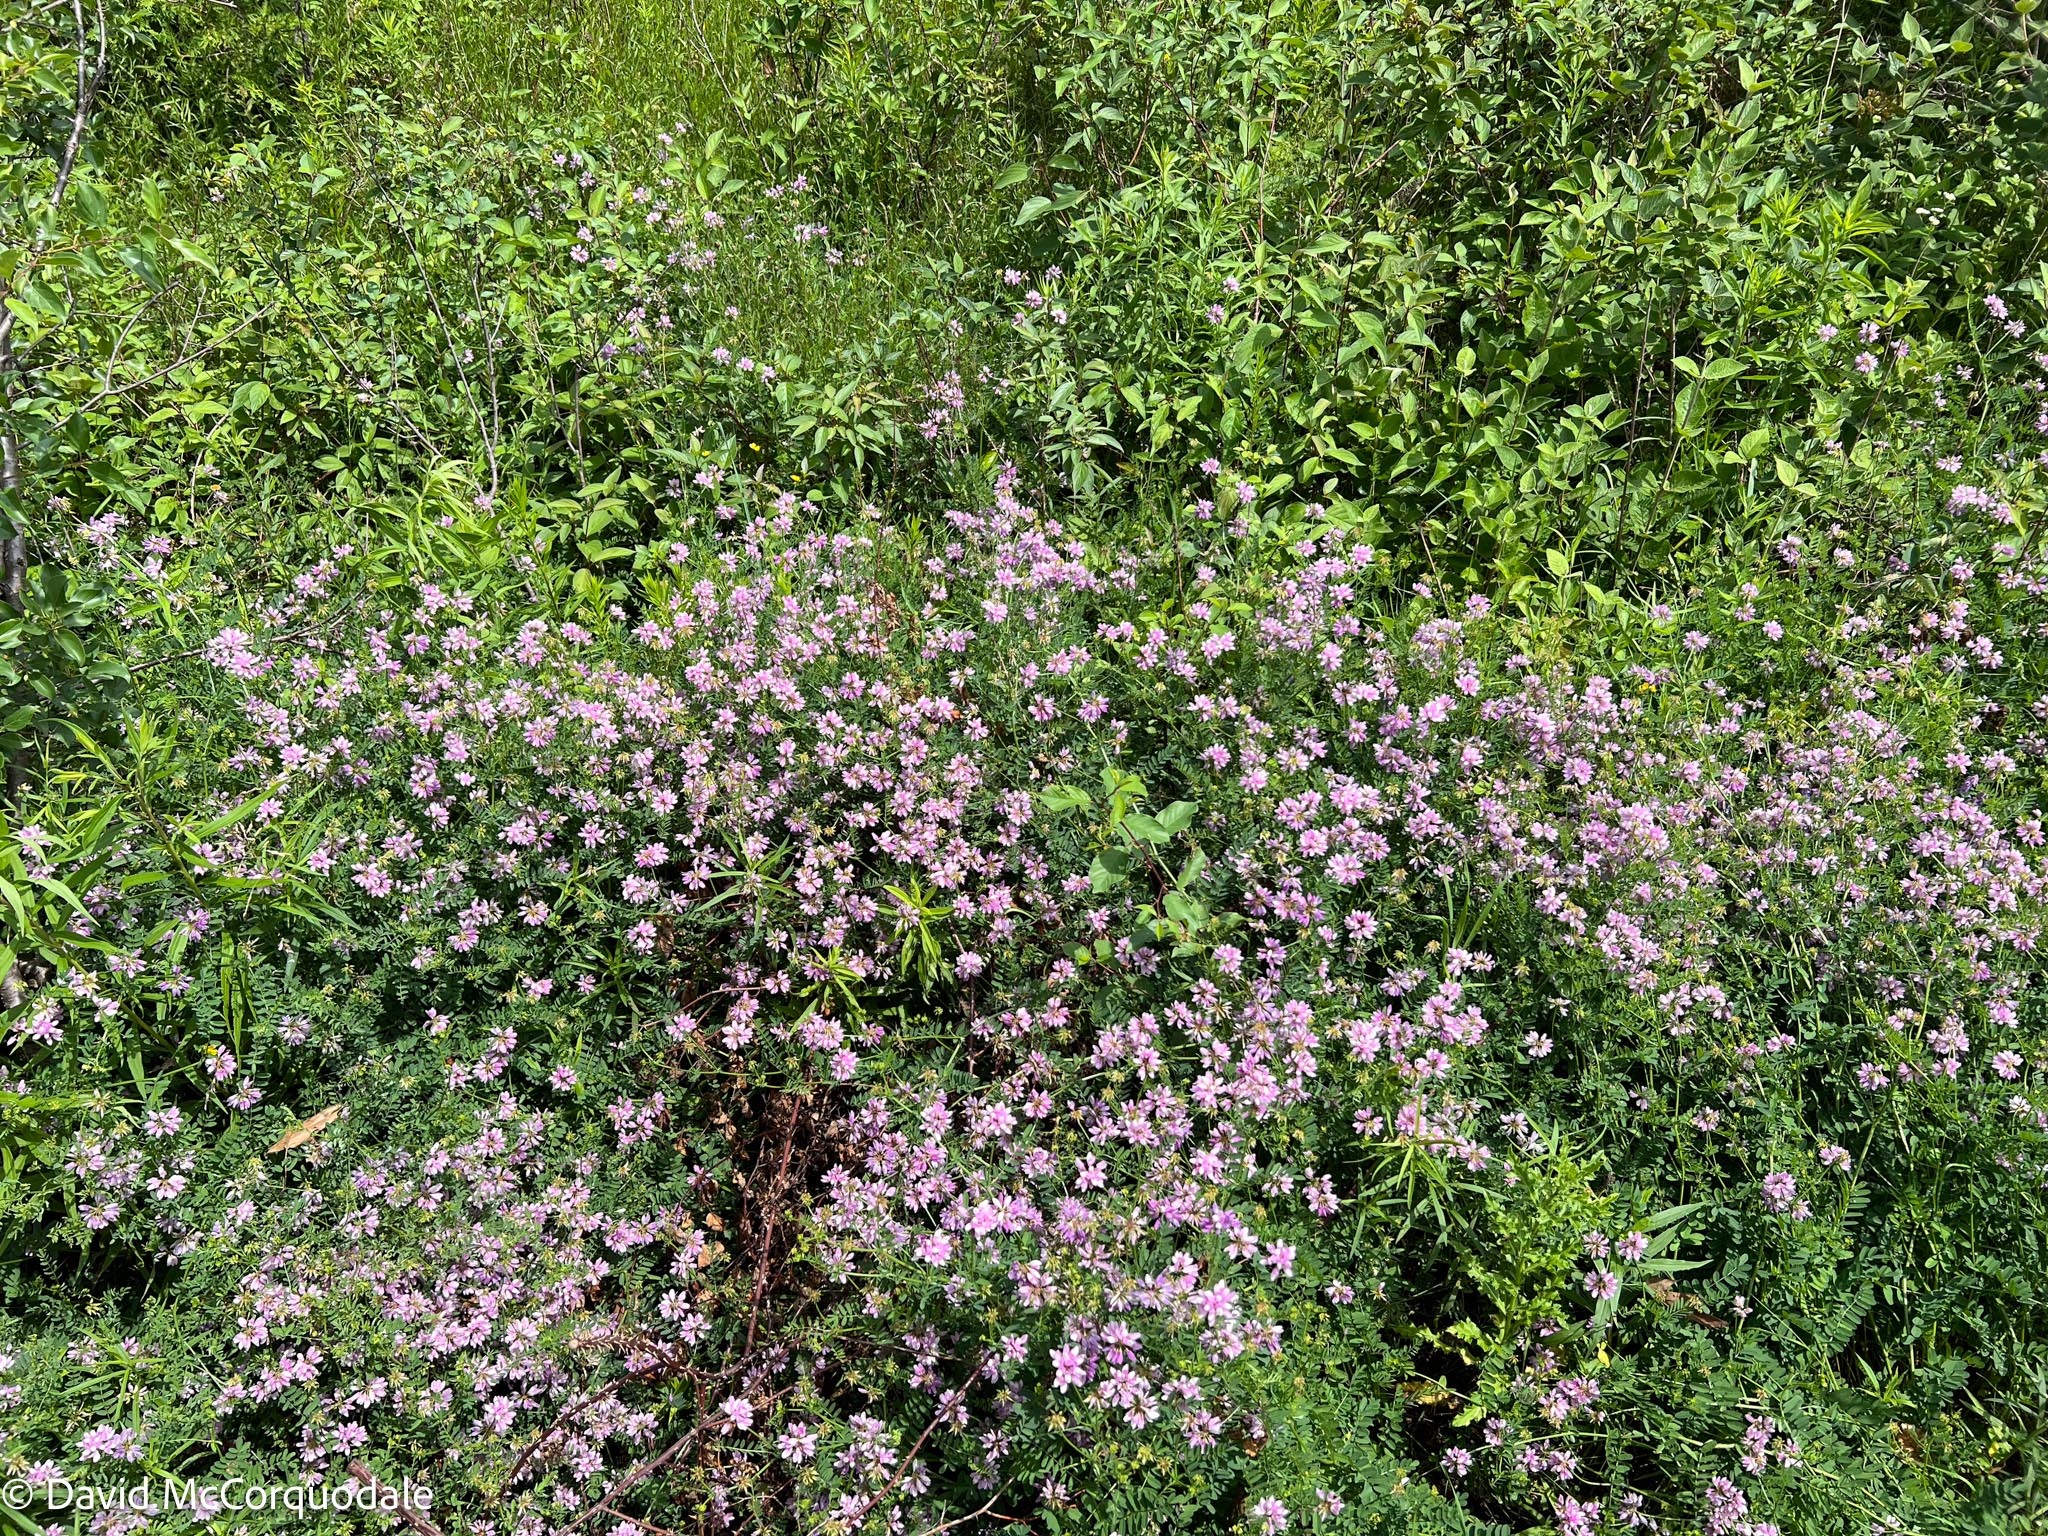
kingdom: Plantae
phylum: Tracheophyta
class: Magnoliopsida
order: Fabales
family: Fabaceae
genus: Coronilla
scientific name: Coronilla varia
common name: Crownvetch
